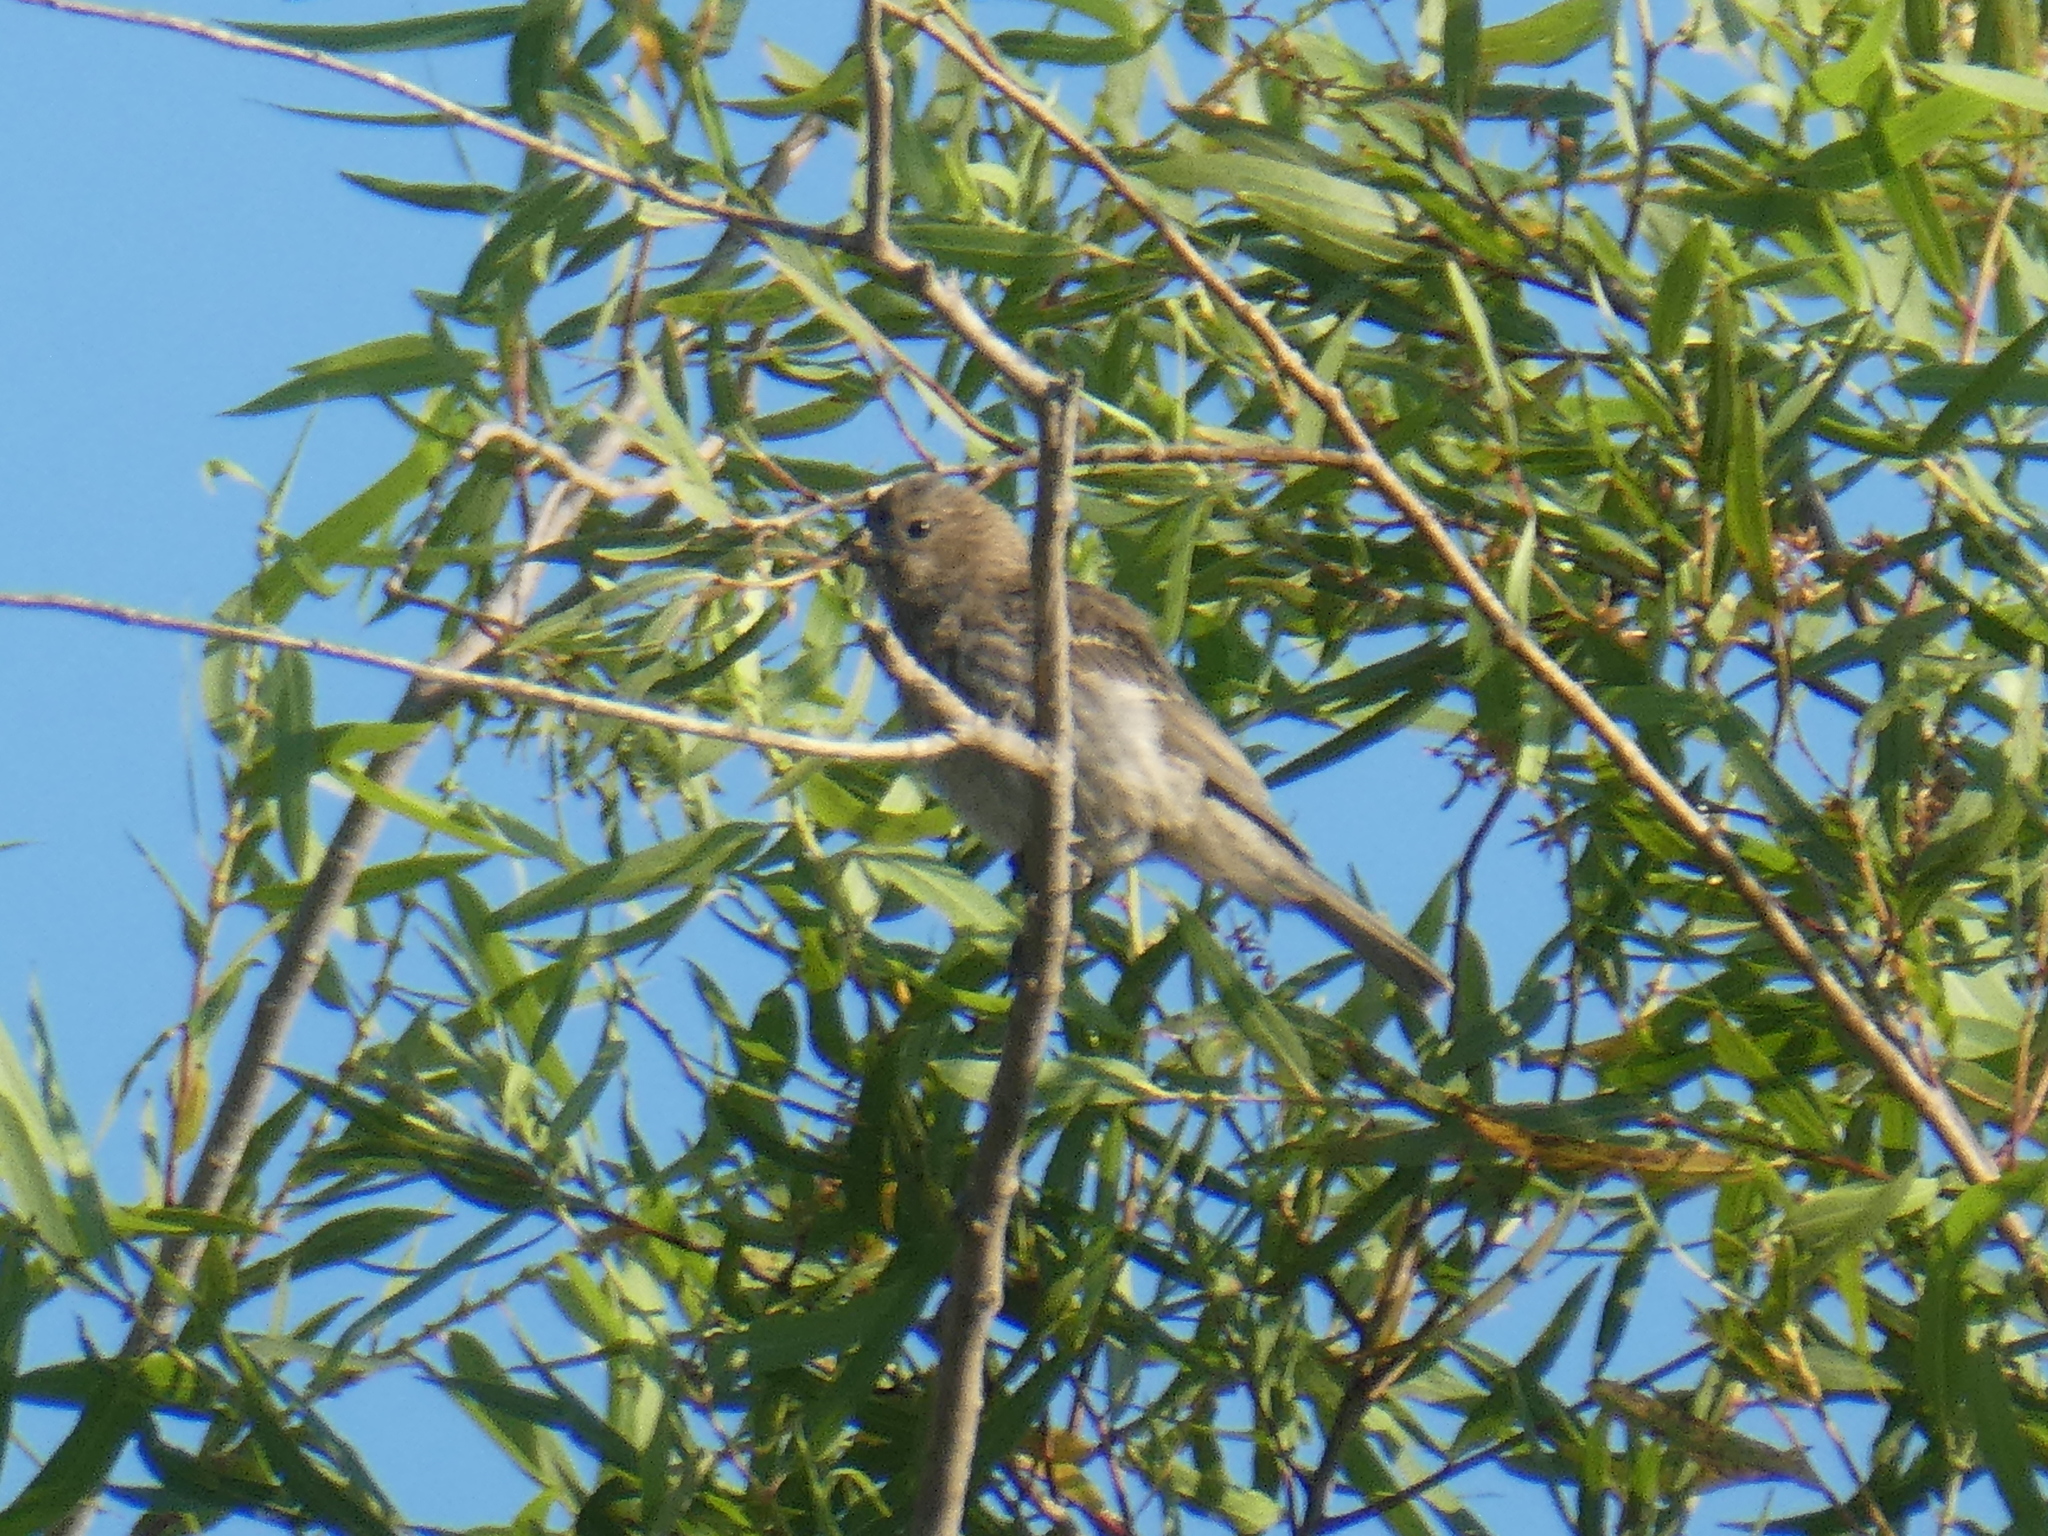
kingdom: Animalia
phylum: Chordata
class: Aves
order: Passeriformes
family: Fringillidae
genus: Haemorhous
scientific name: Haemorhous mexicanus
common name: House finch
